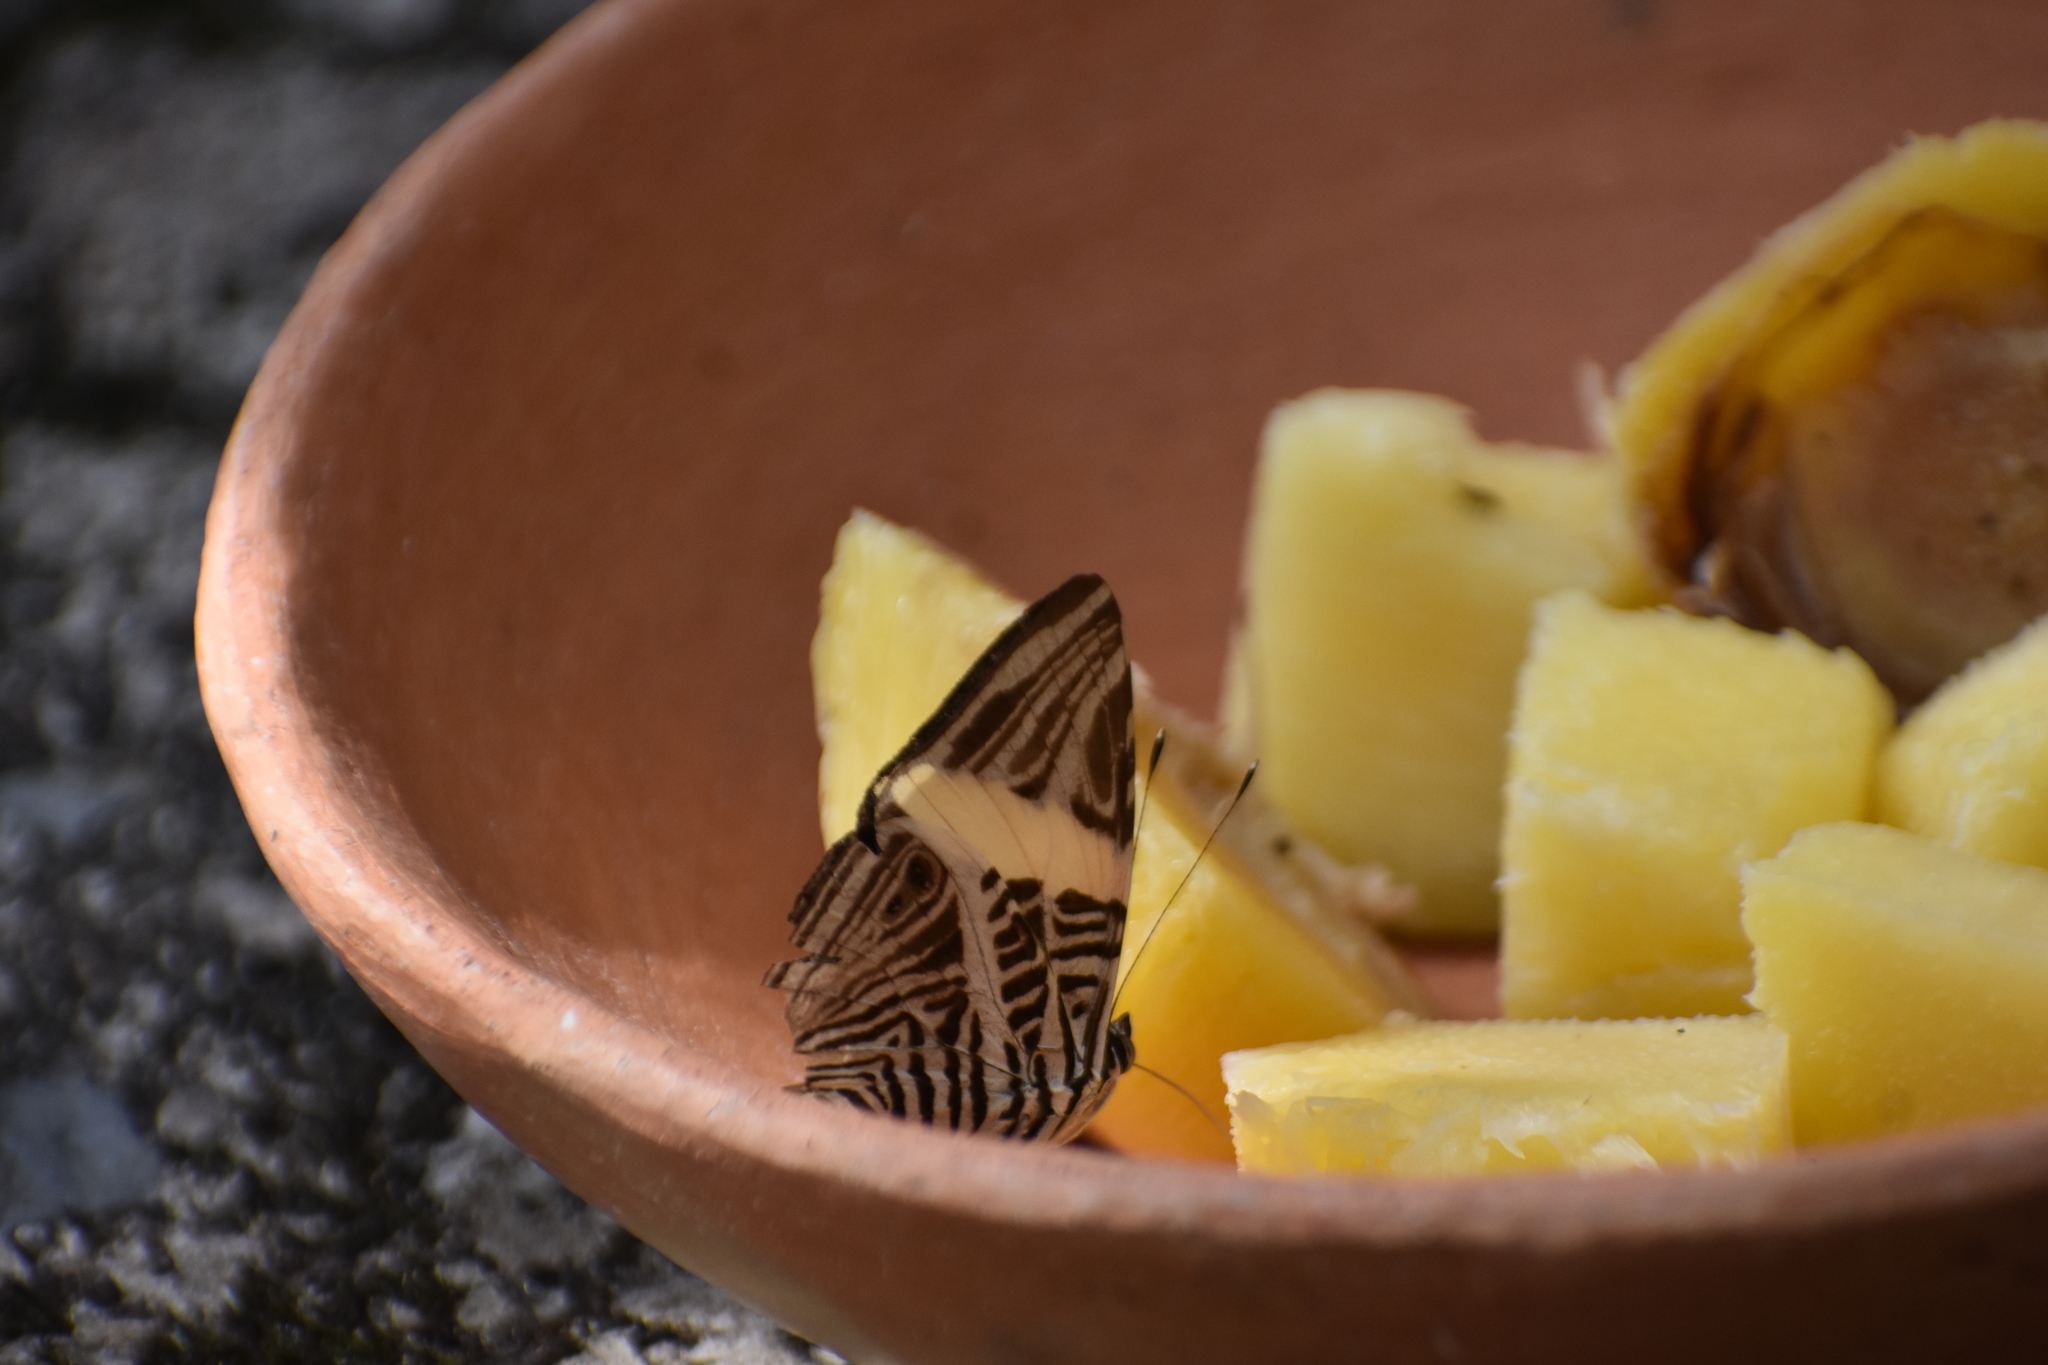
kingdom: Animalia
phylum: Arthropoda
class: Insecta
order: Lepidoptera
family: Nymphalidae
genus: Colobura
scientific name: Colobura dirce
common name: Dirce beauty
